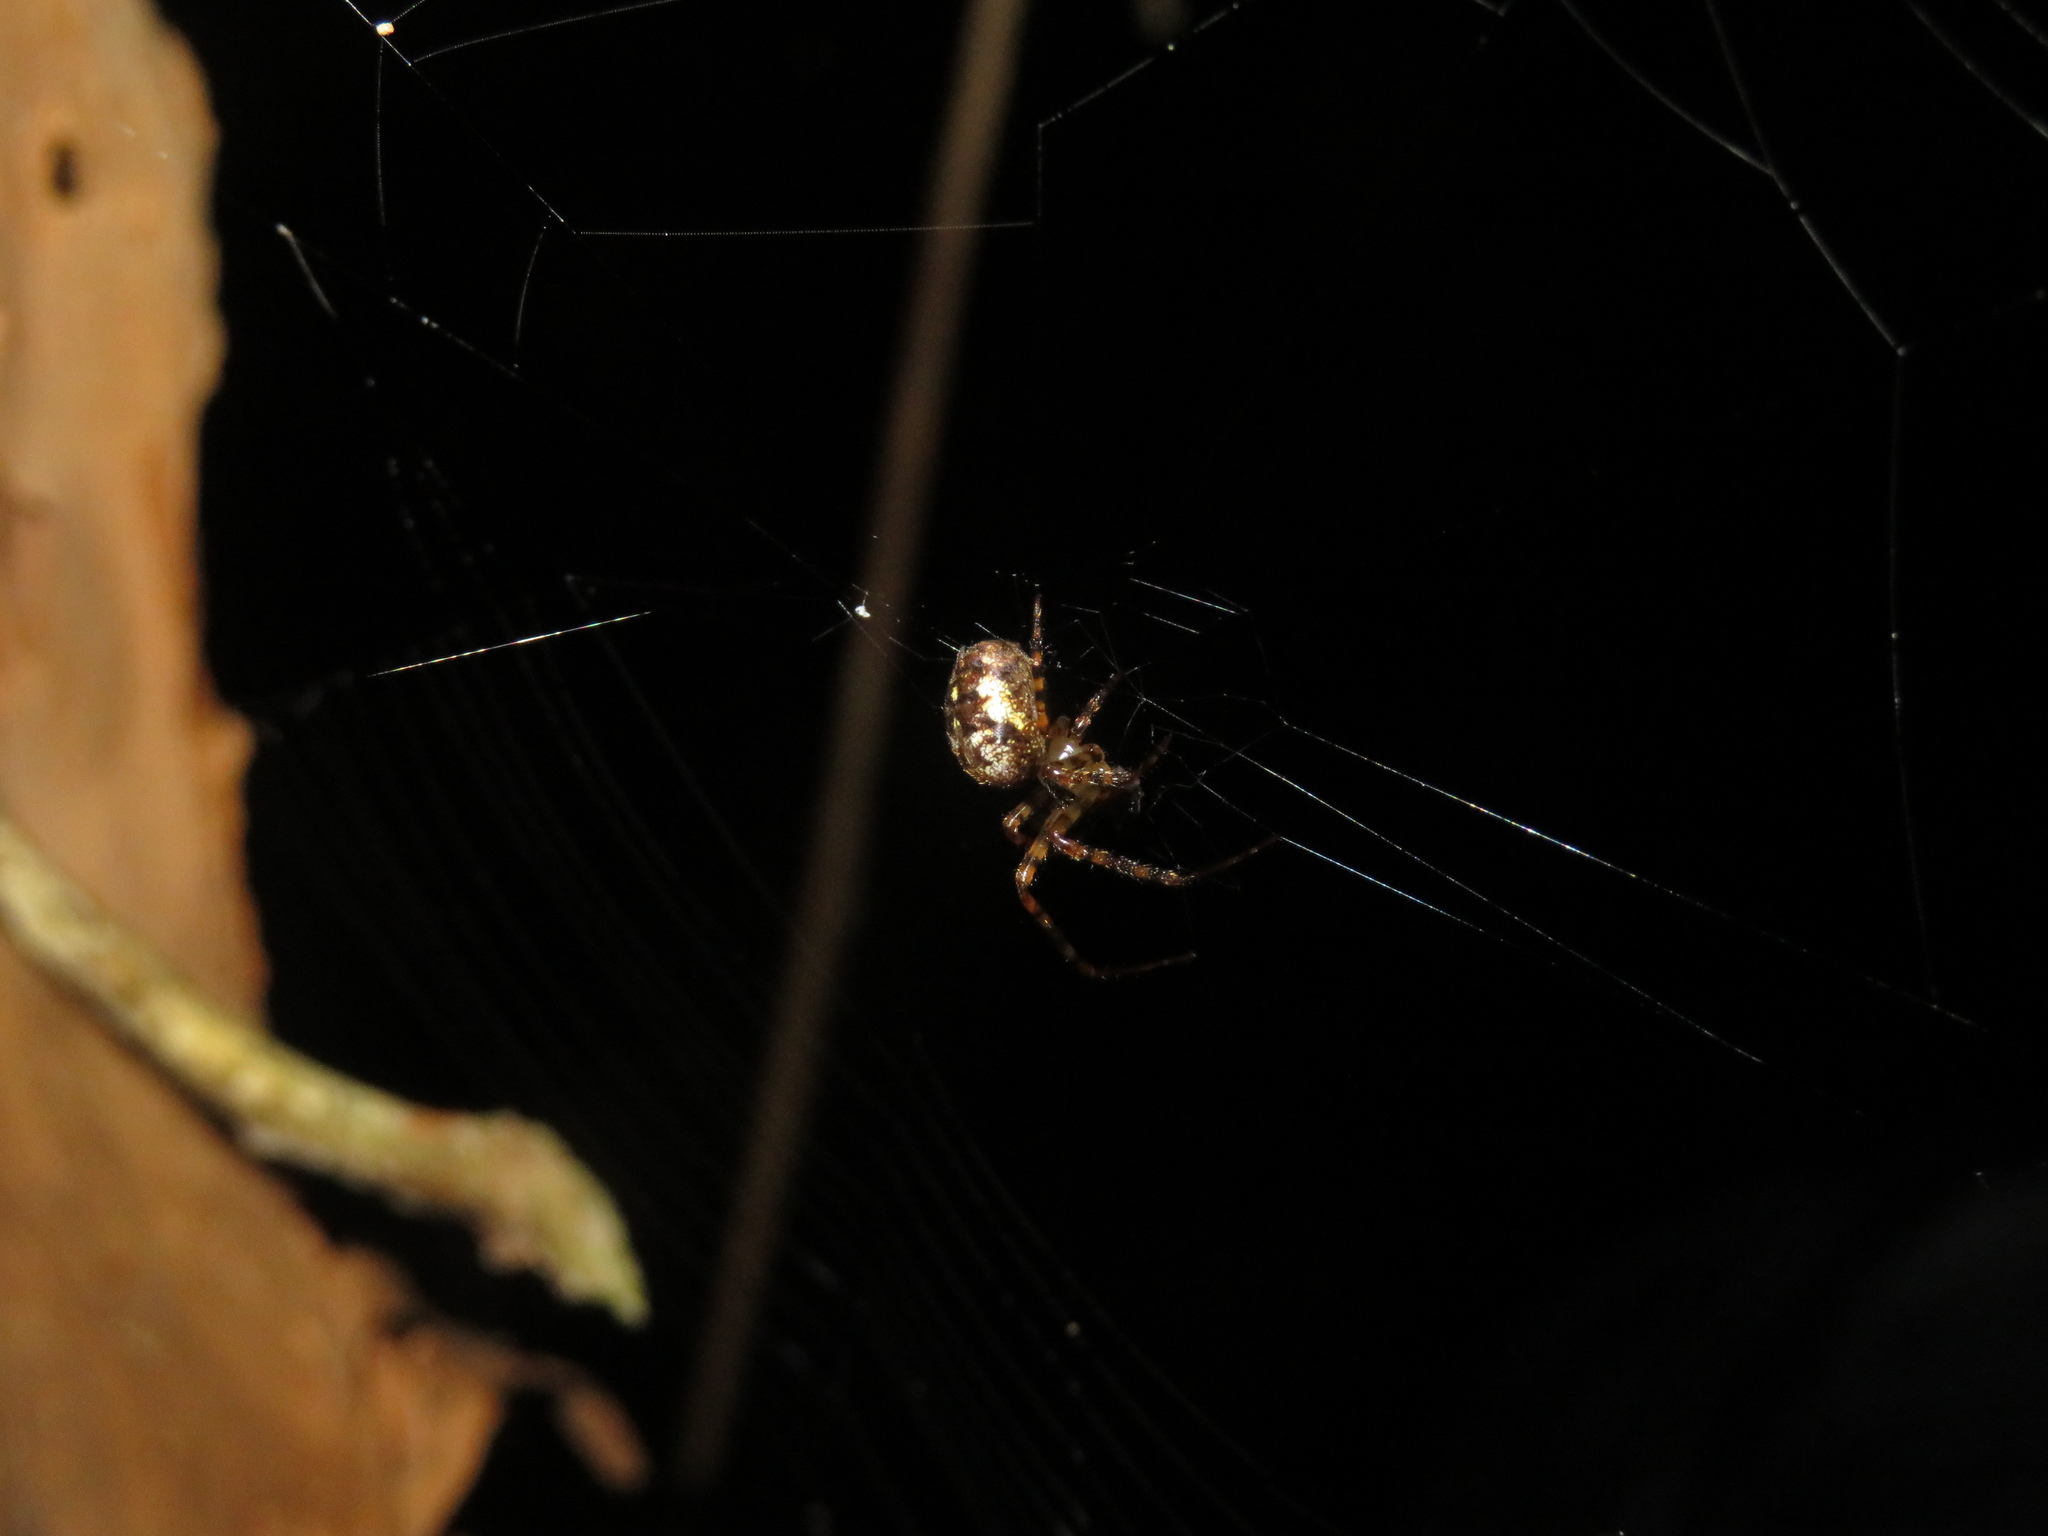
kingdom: Animalia
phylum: Arthropoda
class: Arachnida
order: Araneae
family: Tetragnathidae
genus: Taraire
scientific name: Taraire rufolineata
